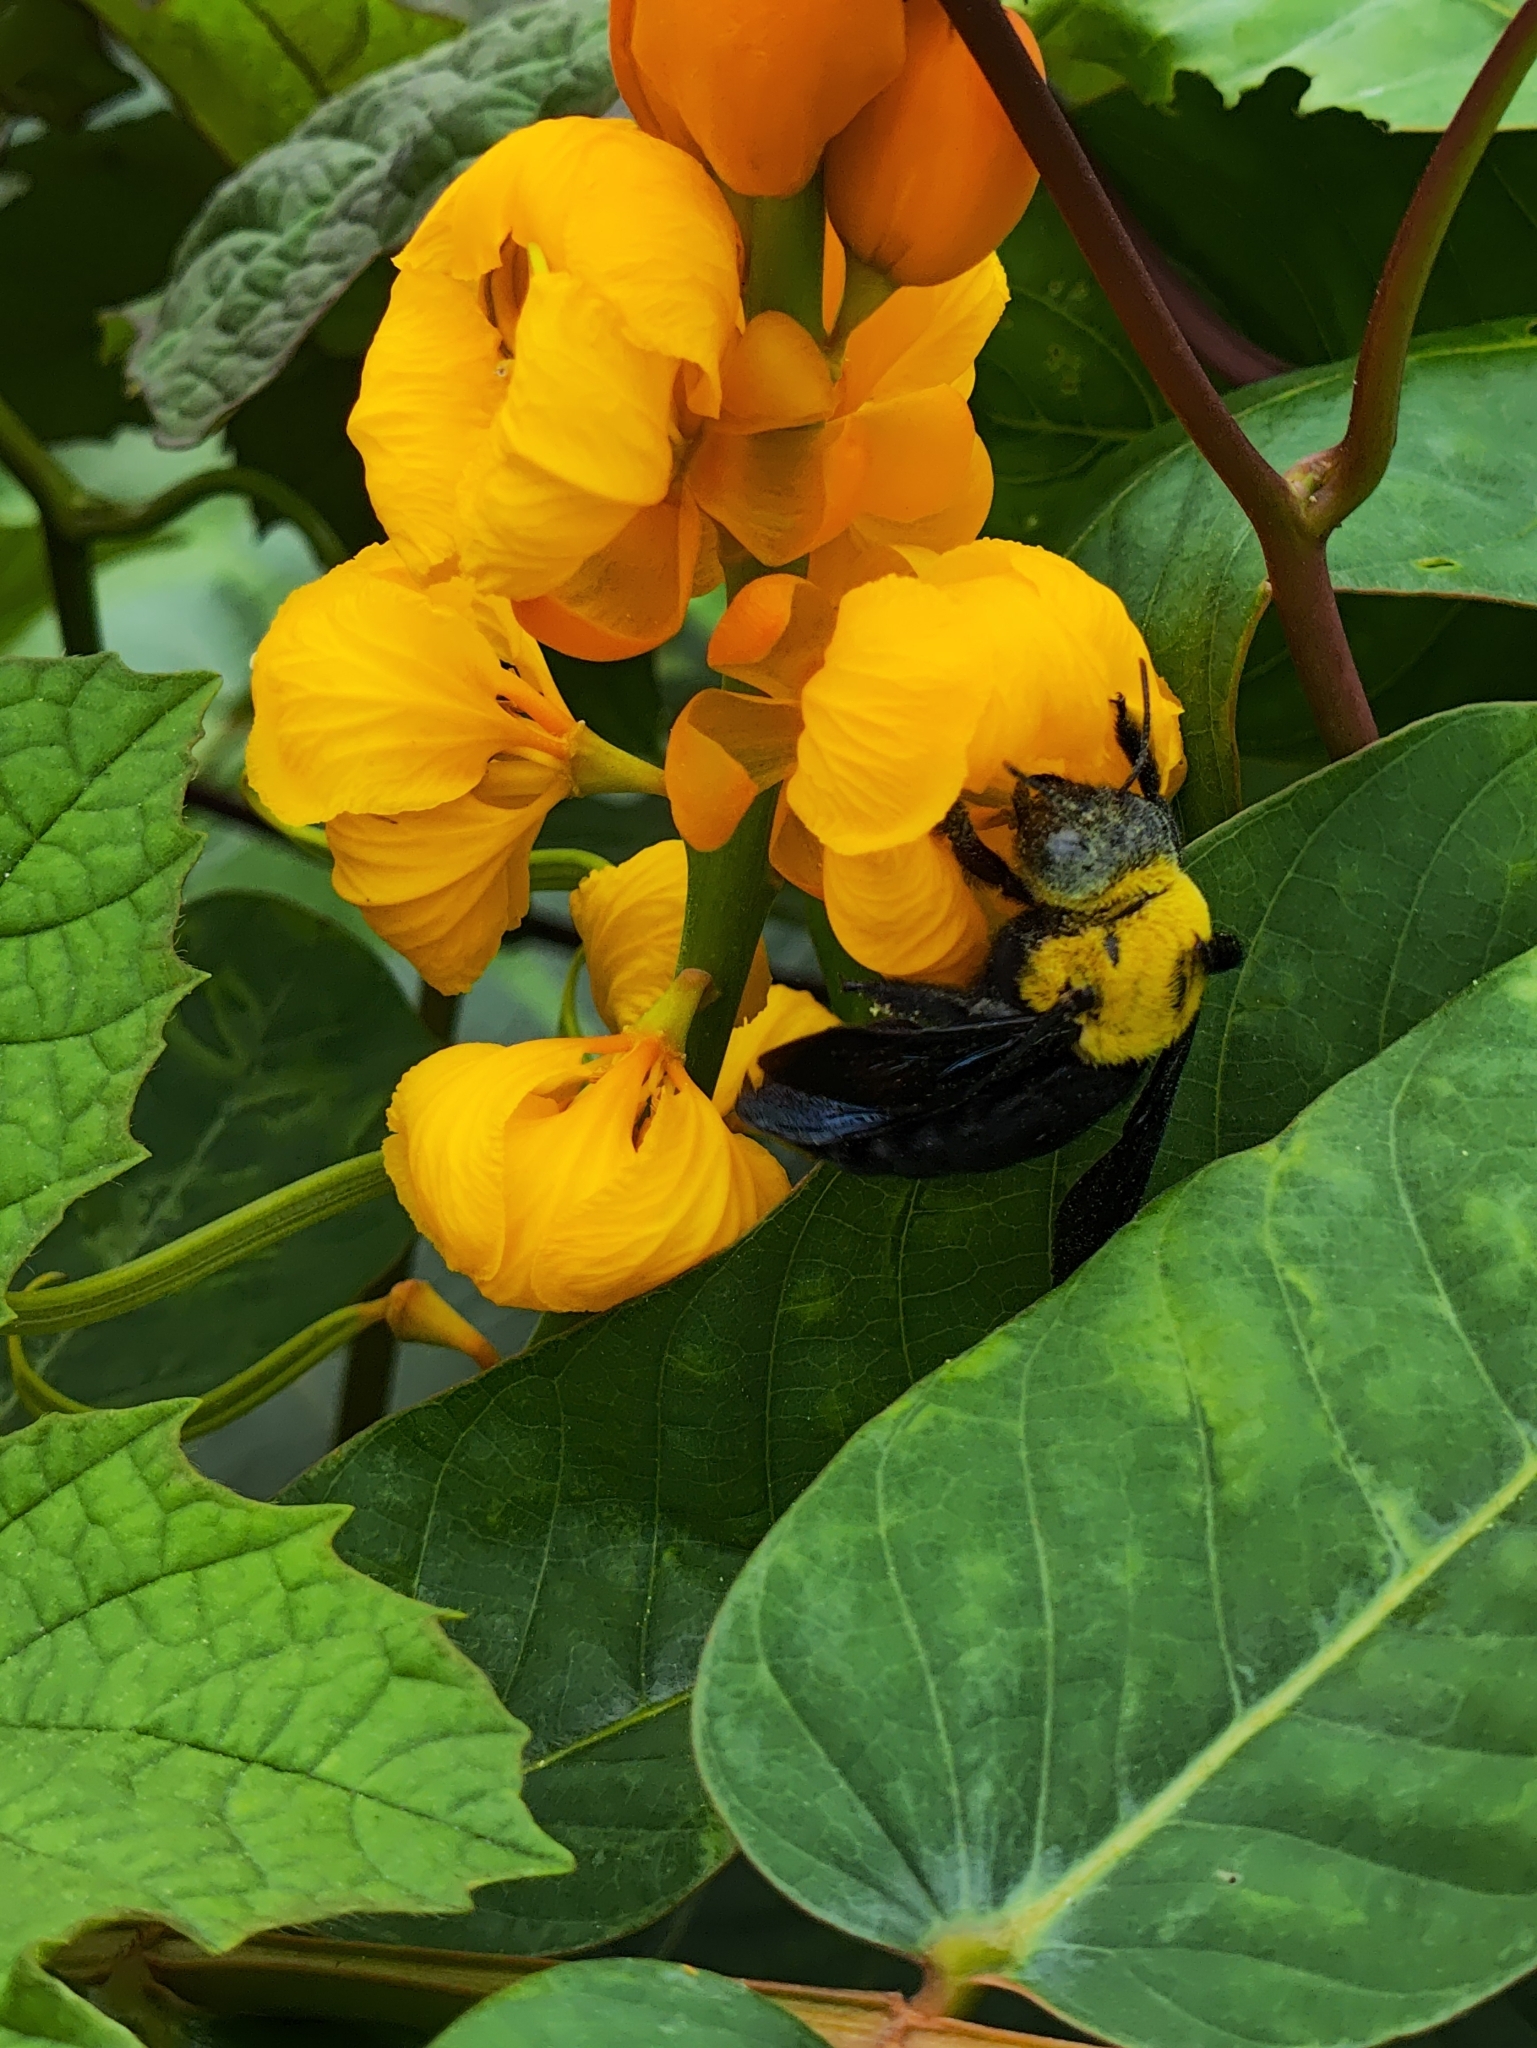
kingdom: Animalia
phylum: Arthropoda
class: Insecta
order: Hymenoptera
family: Apidae
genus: Xylocopa
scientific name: Xylocopa ruficornis
